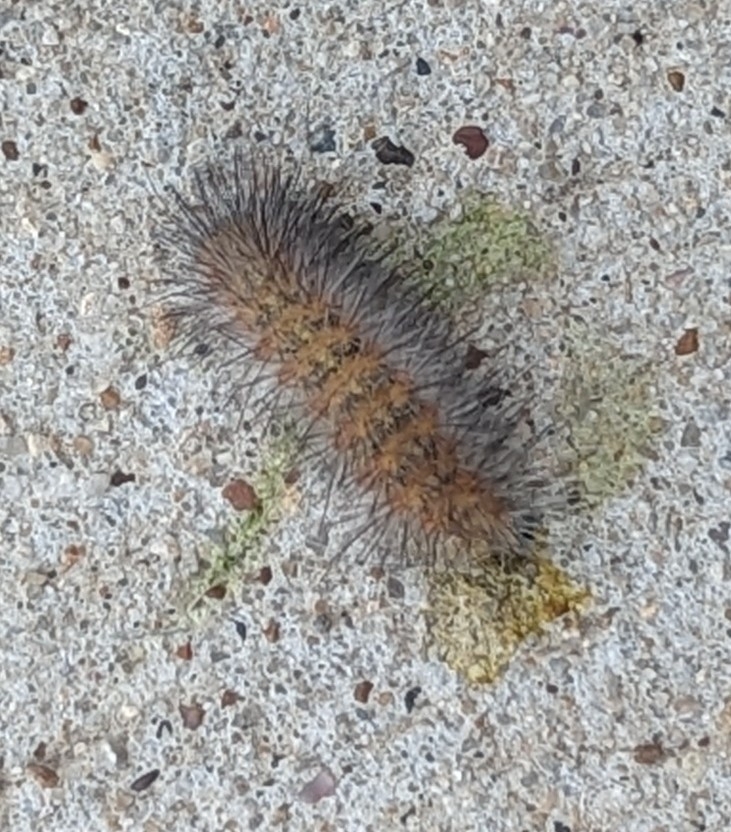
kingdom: Animalia
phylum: Arthropoda
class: Insecta
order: Lepidoptera
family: Erebidae
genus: Estigmene
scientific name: Estigmene acrea
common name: Salt marsh moth
